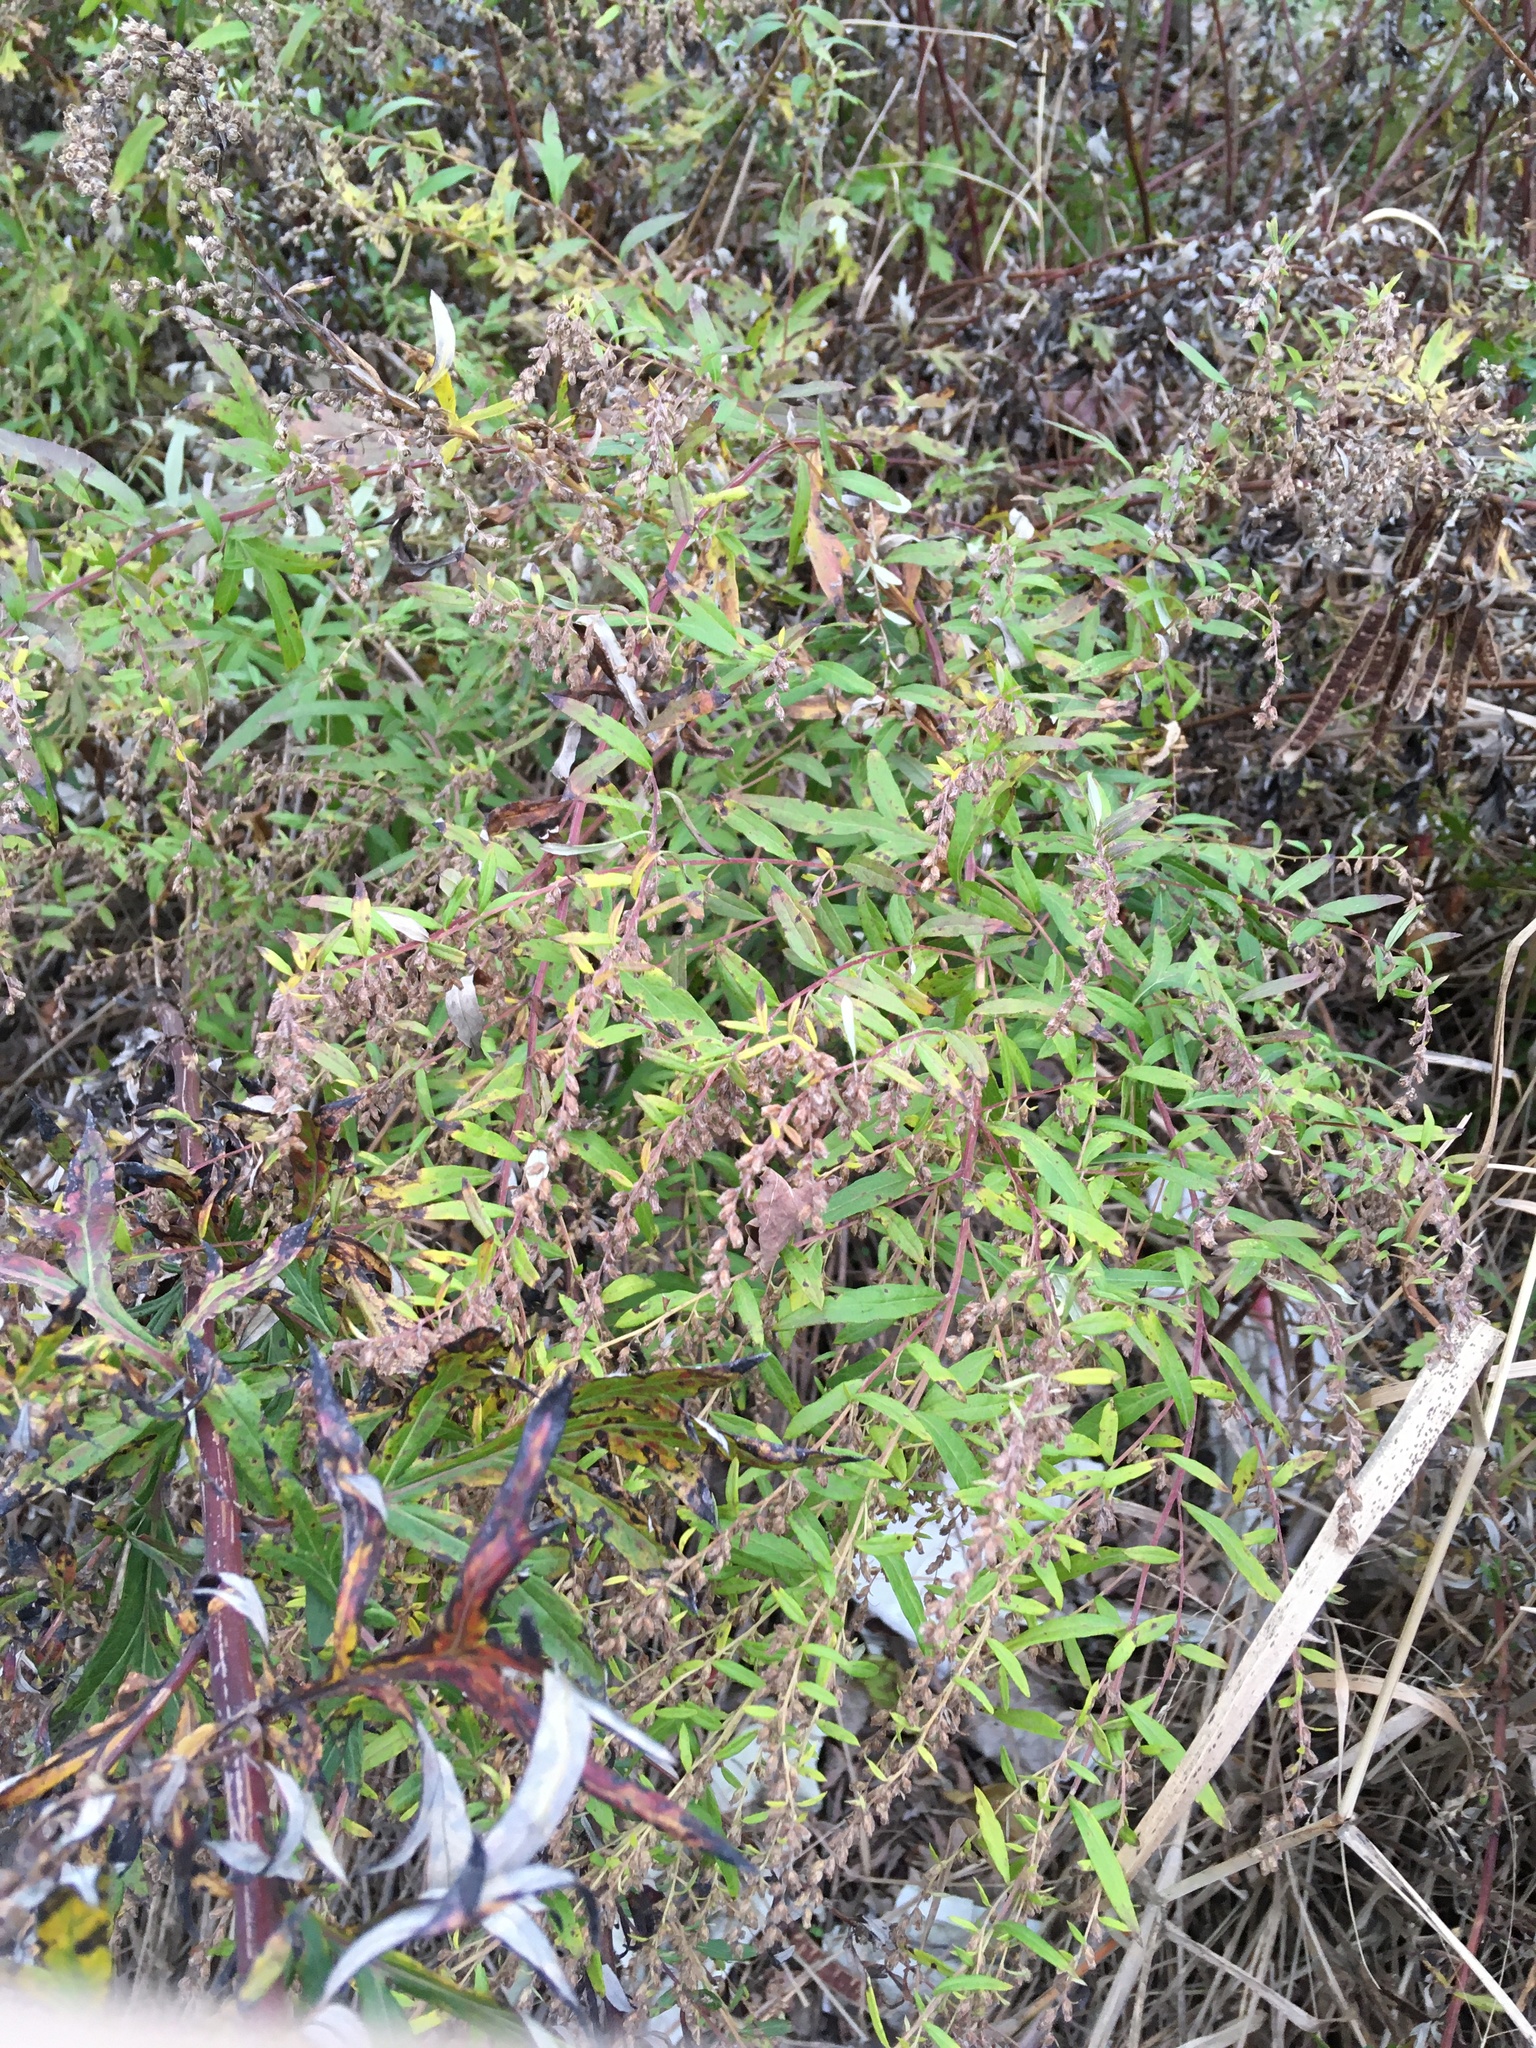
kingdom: Plantae
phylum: Tracheophyta
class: Magnoliopsida
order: Asterales
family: Asteraceae
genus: Artemisia
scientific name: Artemisia vulgaris
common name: Mugwort
